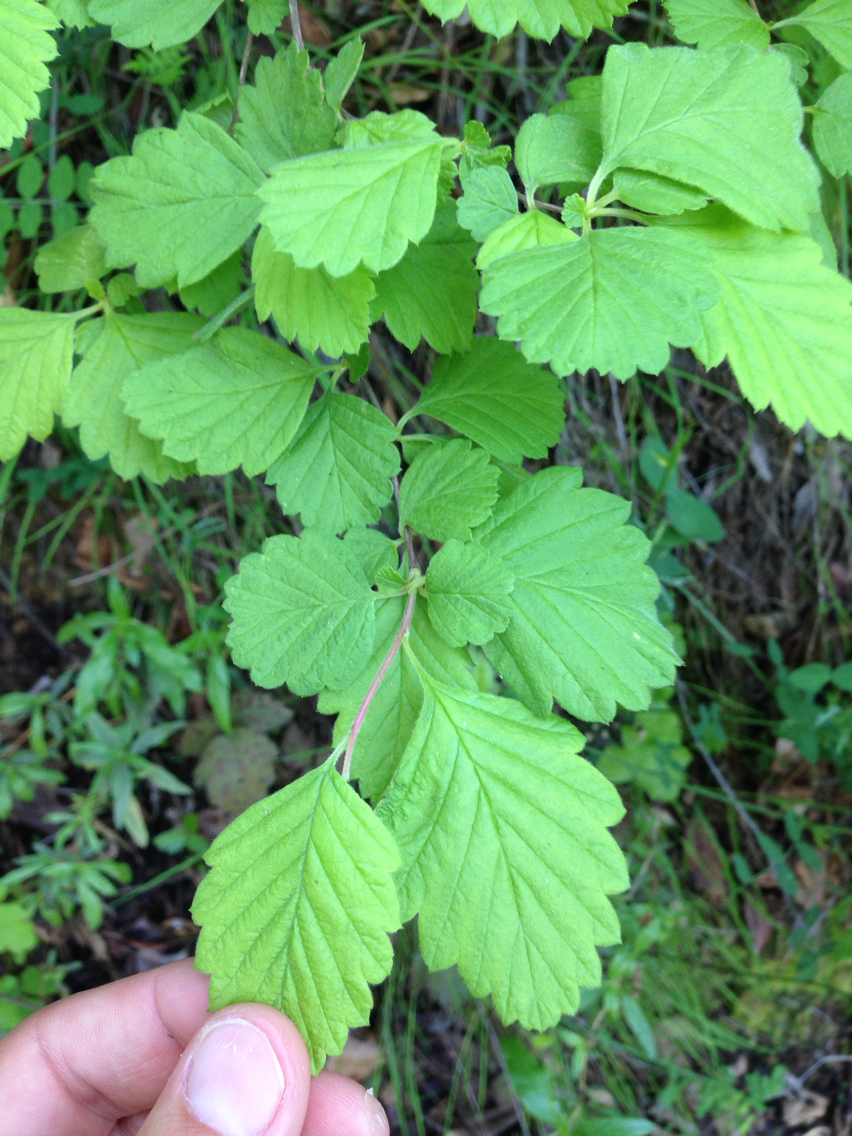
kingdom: Plantae
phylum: Tracheophyta
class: Magnoliopsida
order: Rosales
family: Rosaceae
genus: Holodiscus
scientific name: Holodiscus discolor
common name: Oceanspray
